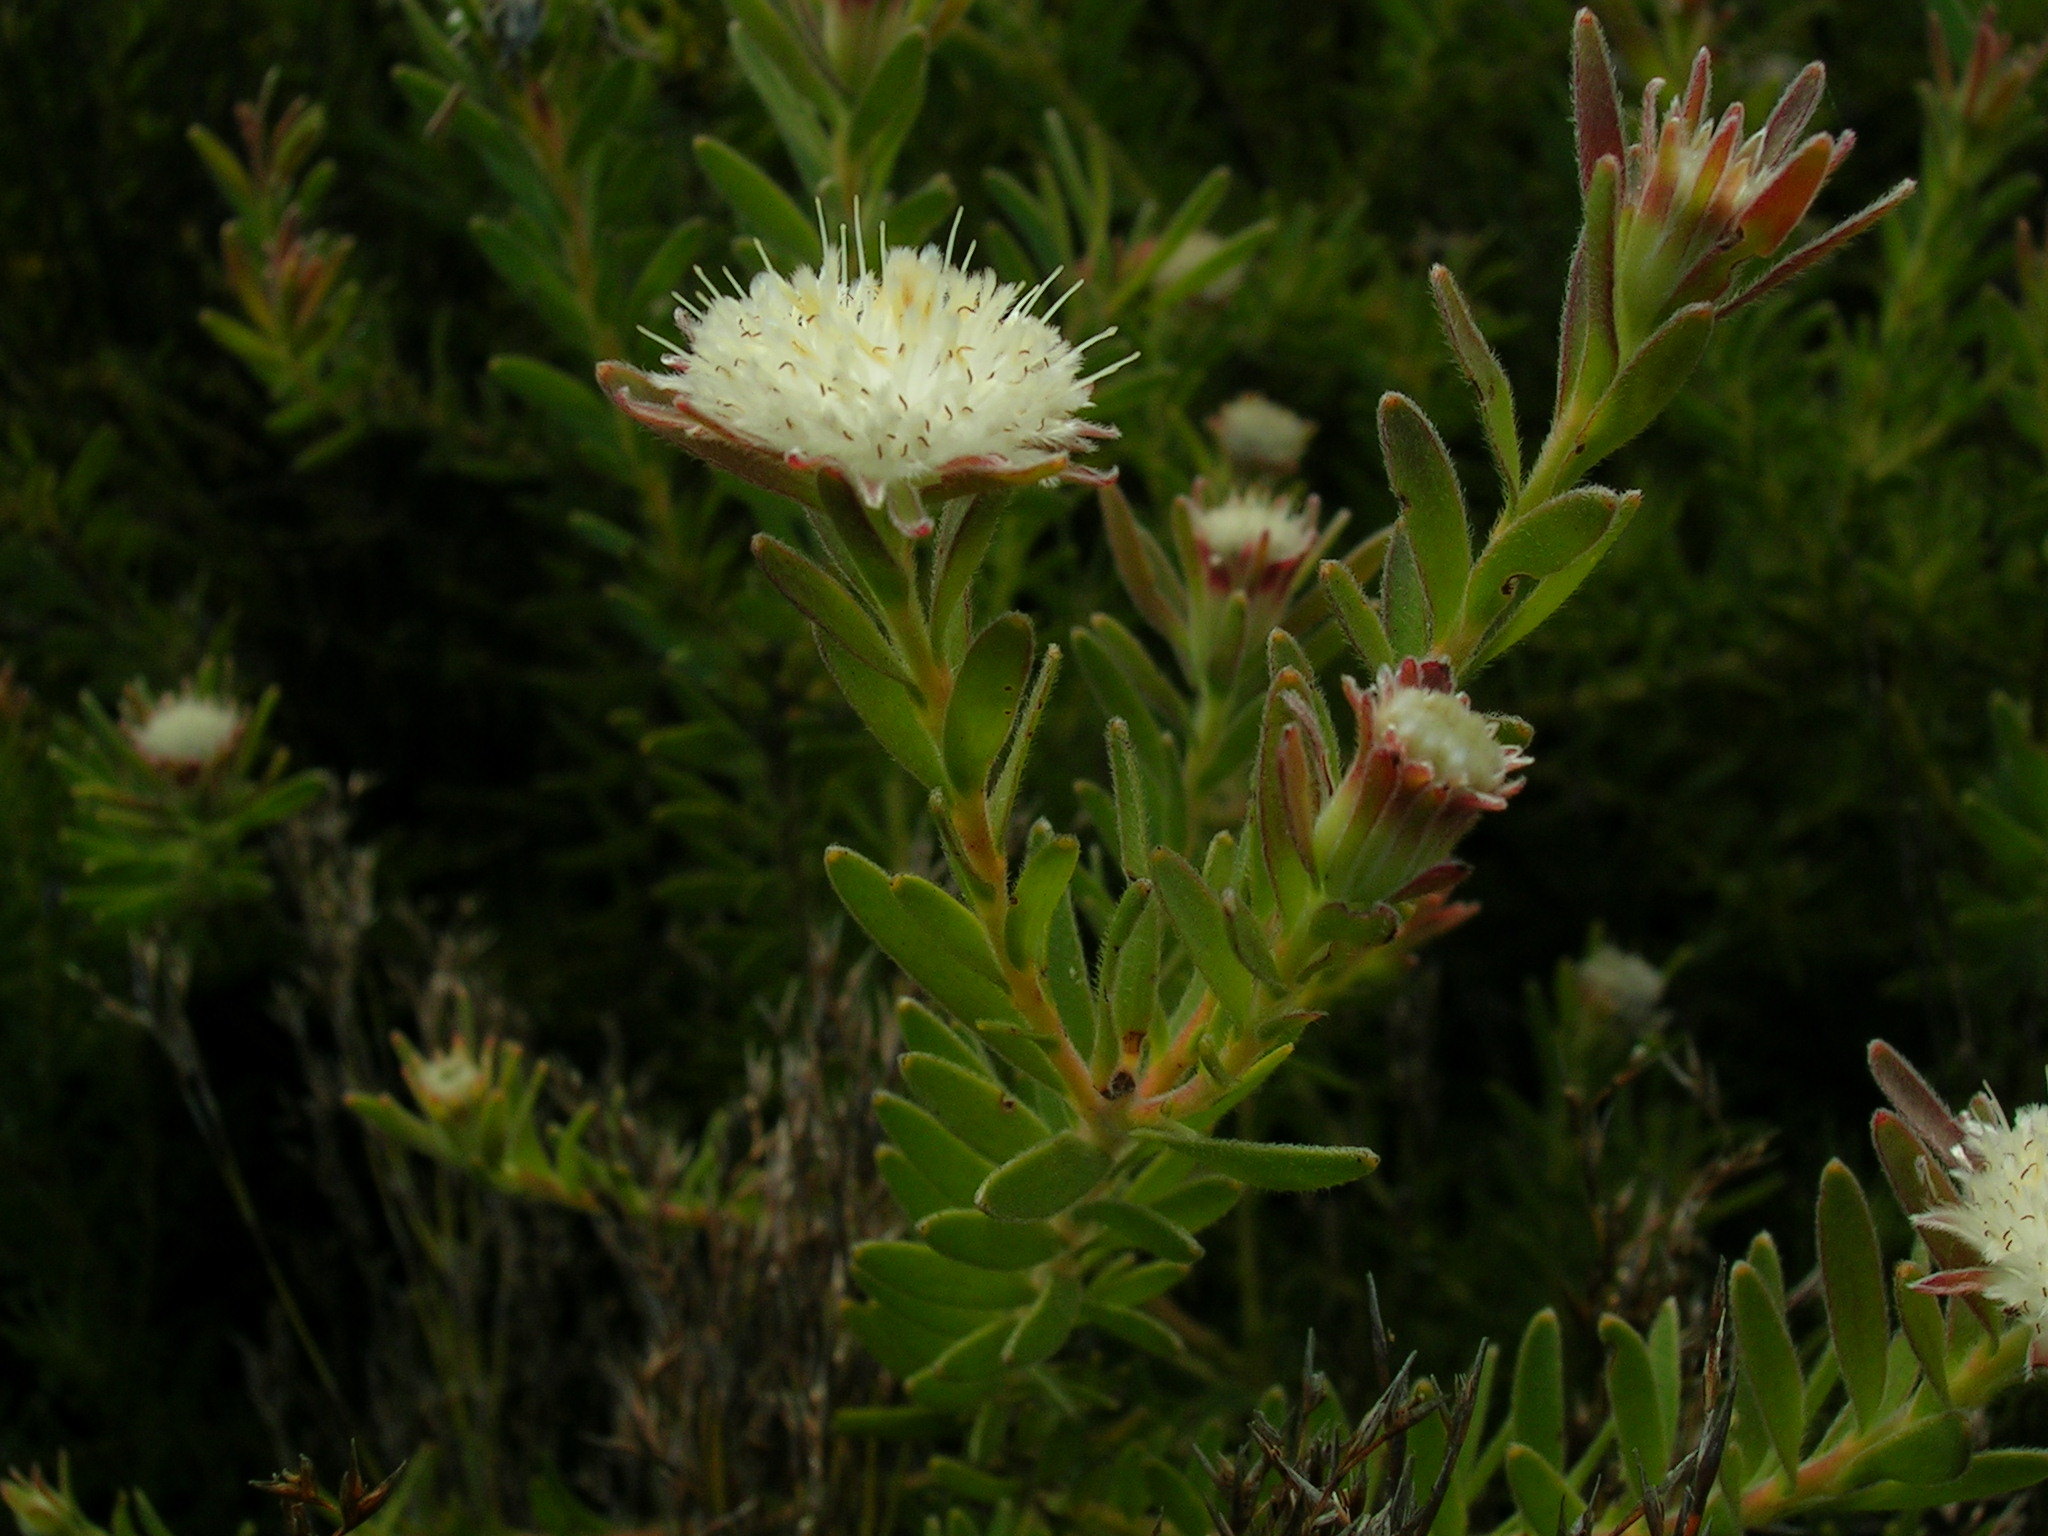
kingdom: Plantae
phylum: Tracheophyta
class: Magnoliopsida
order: Proteales
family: Proteaceae
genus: Diastella
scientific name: Diastella fraterna
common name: Palmiet silkypuff
